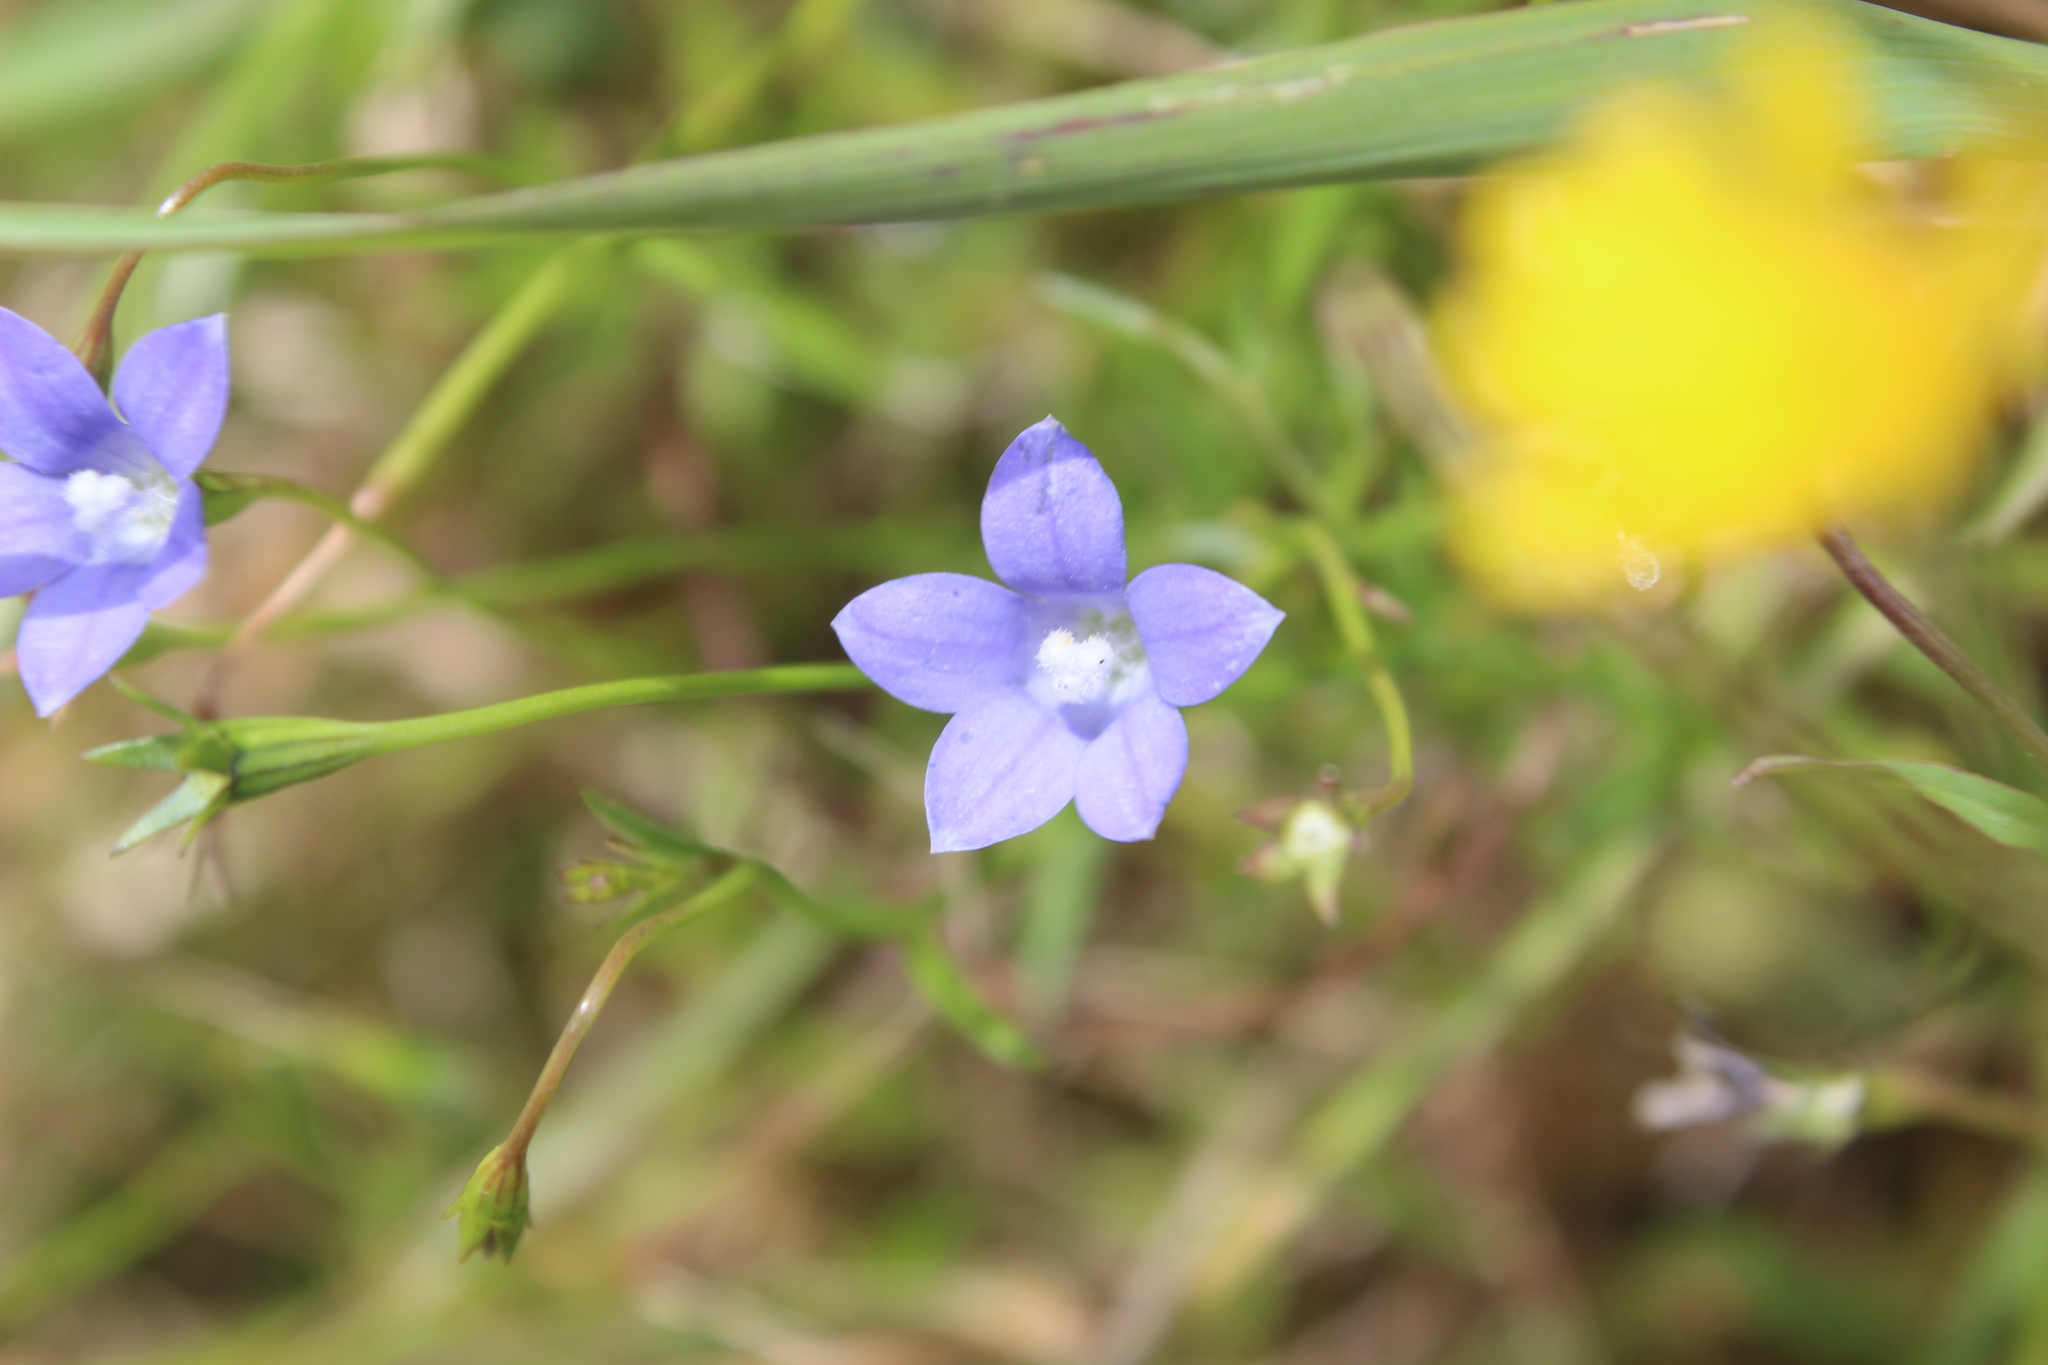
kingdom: Plantae
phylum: Tracheophyta
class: Magnoliopsida
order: Asterales
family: Campanulaceae
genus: Wahlenbergia
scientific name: Wahlenbergia violacea
